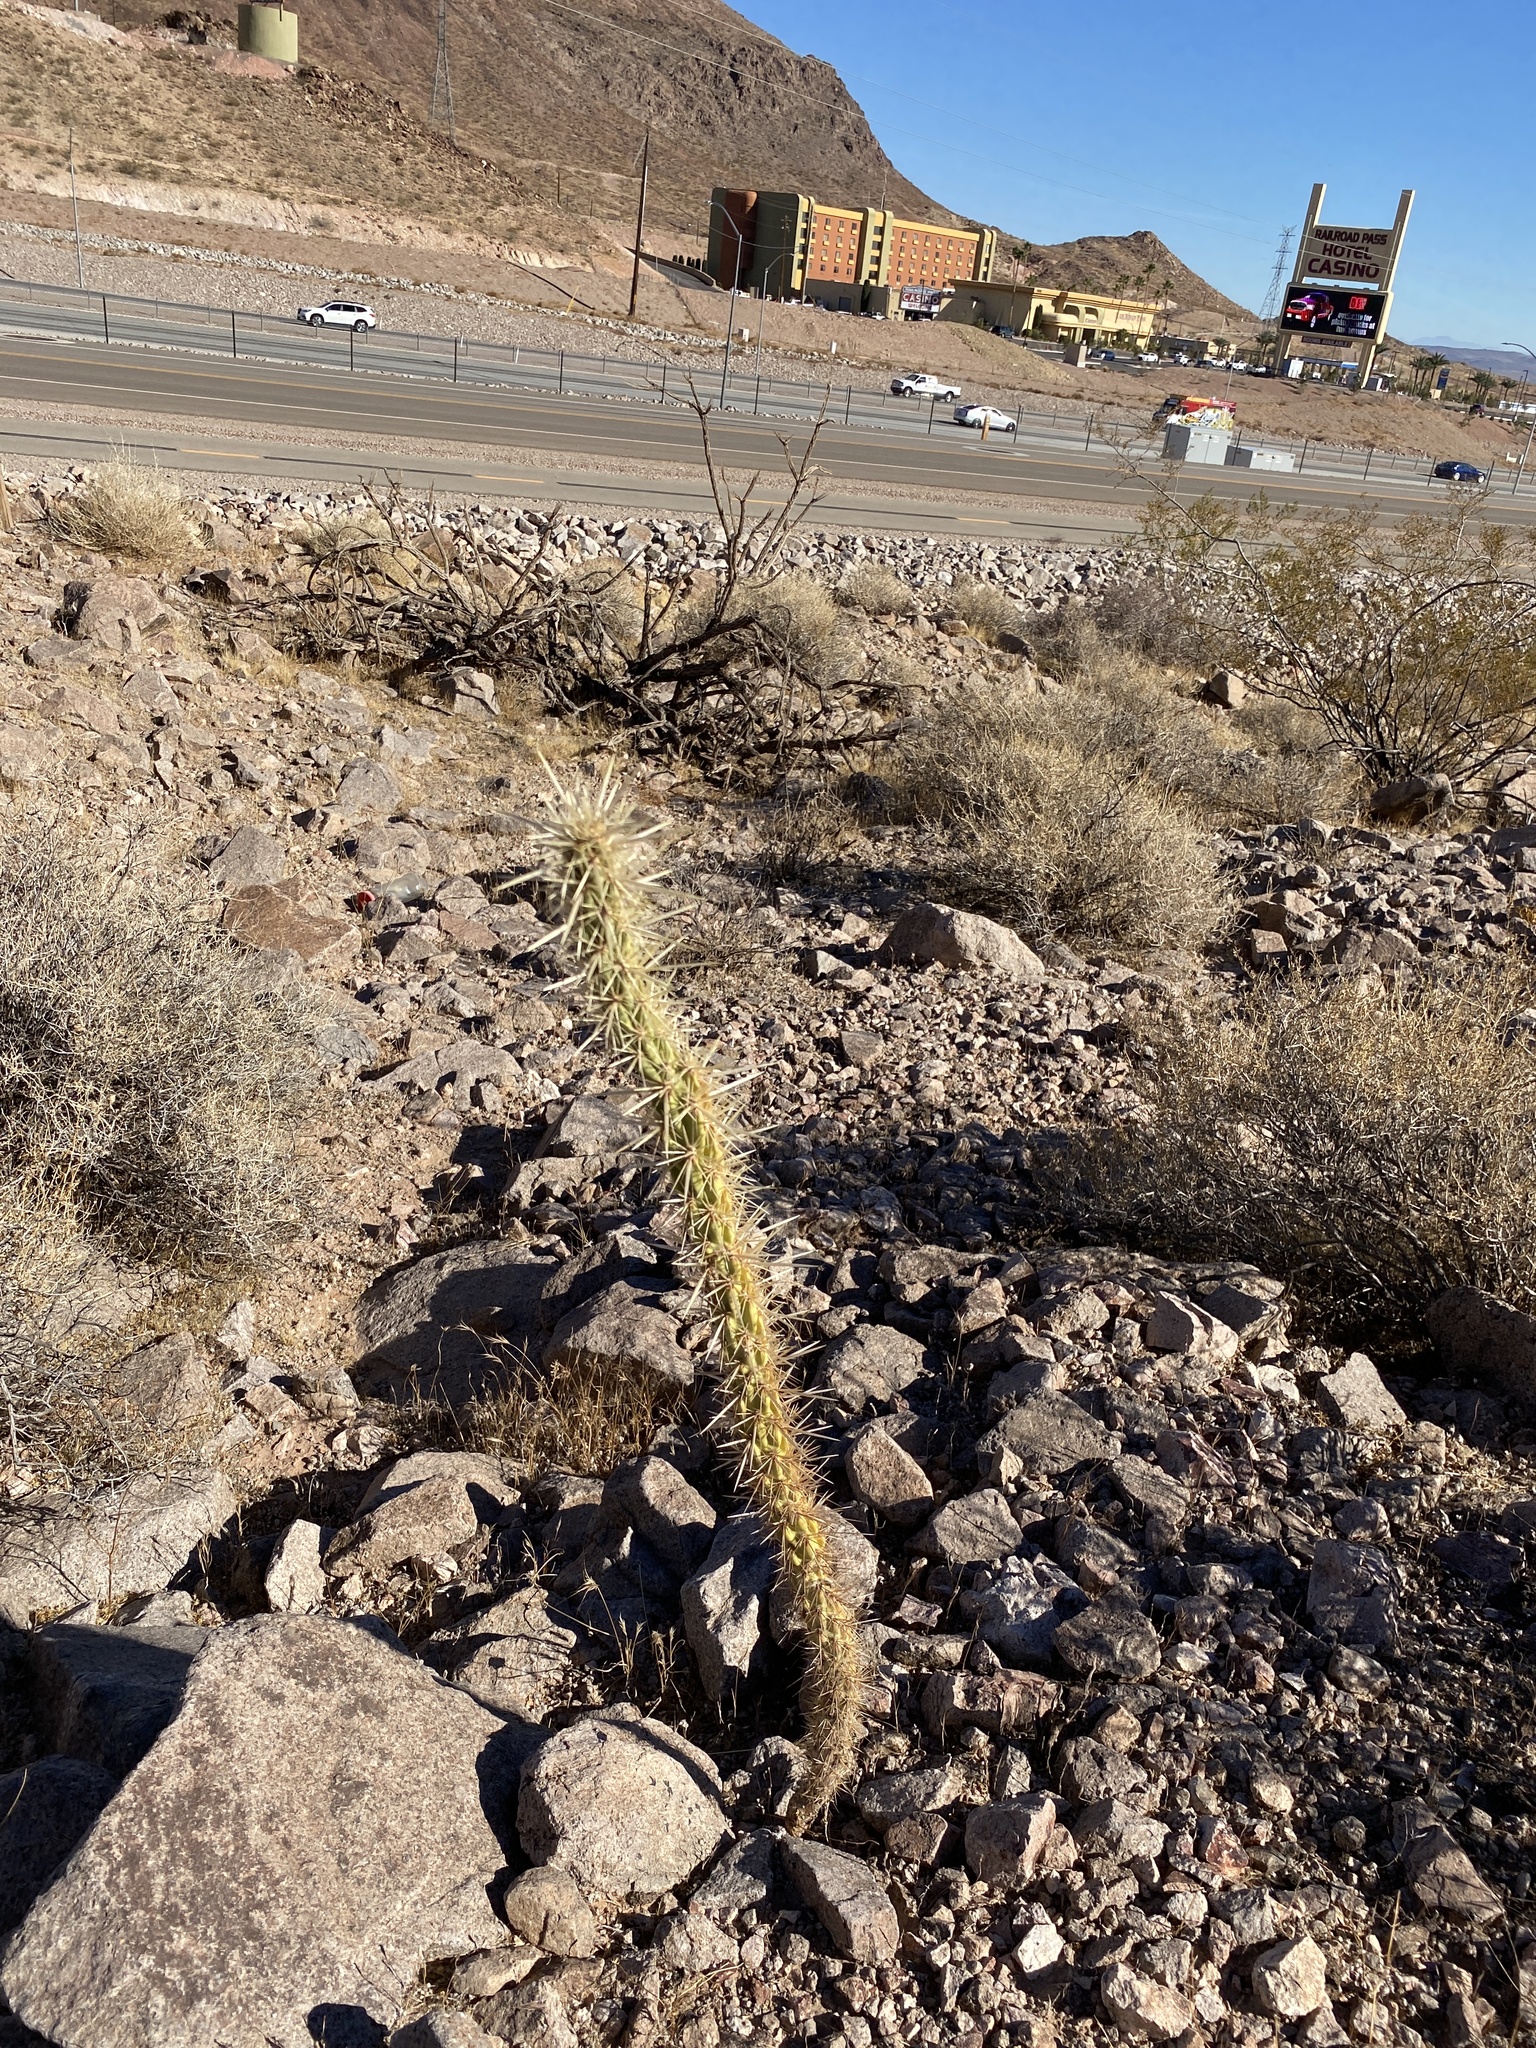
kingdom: Plantae
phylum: Tracheophyta
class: Magnoliopsida
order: Caryophyllales
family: Cactaceae
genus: Cylindropuntia
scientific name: Cylindropuntia acanthocarpa
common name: Buckhorn cholla
